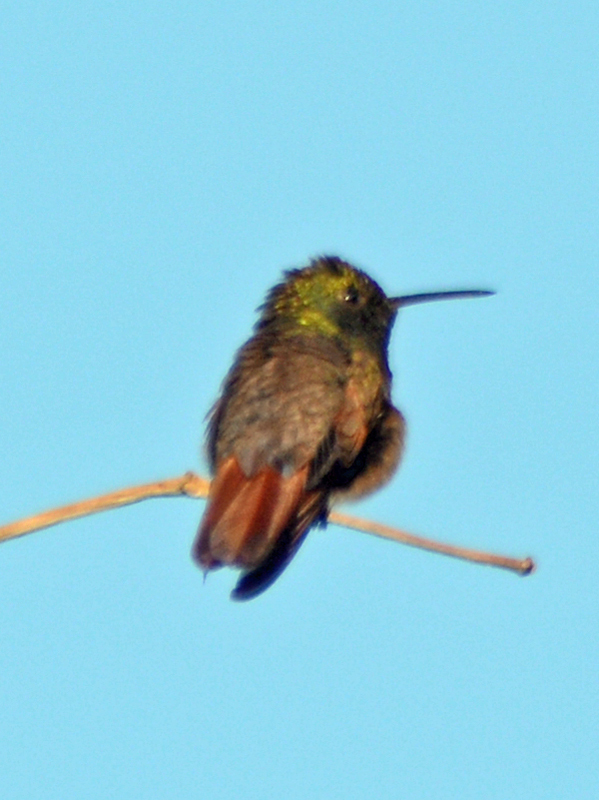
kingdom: Animalia
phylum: Chordata
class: Aves
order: Apodiformes
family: Trochilidae
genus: Saucerottia
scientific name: Saucerottia beryllina
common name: Berylline hummingbird
